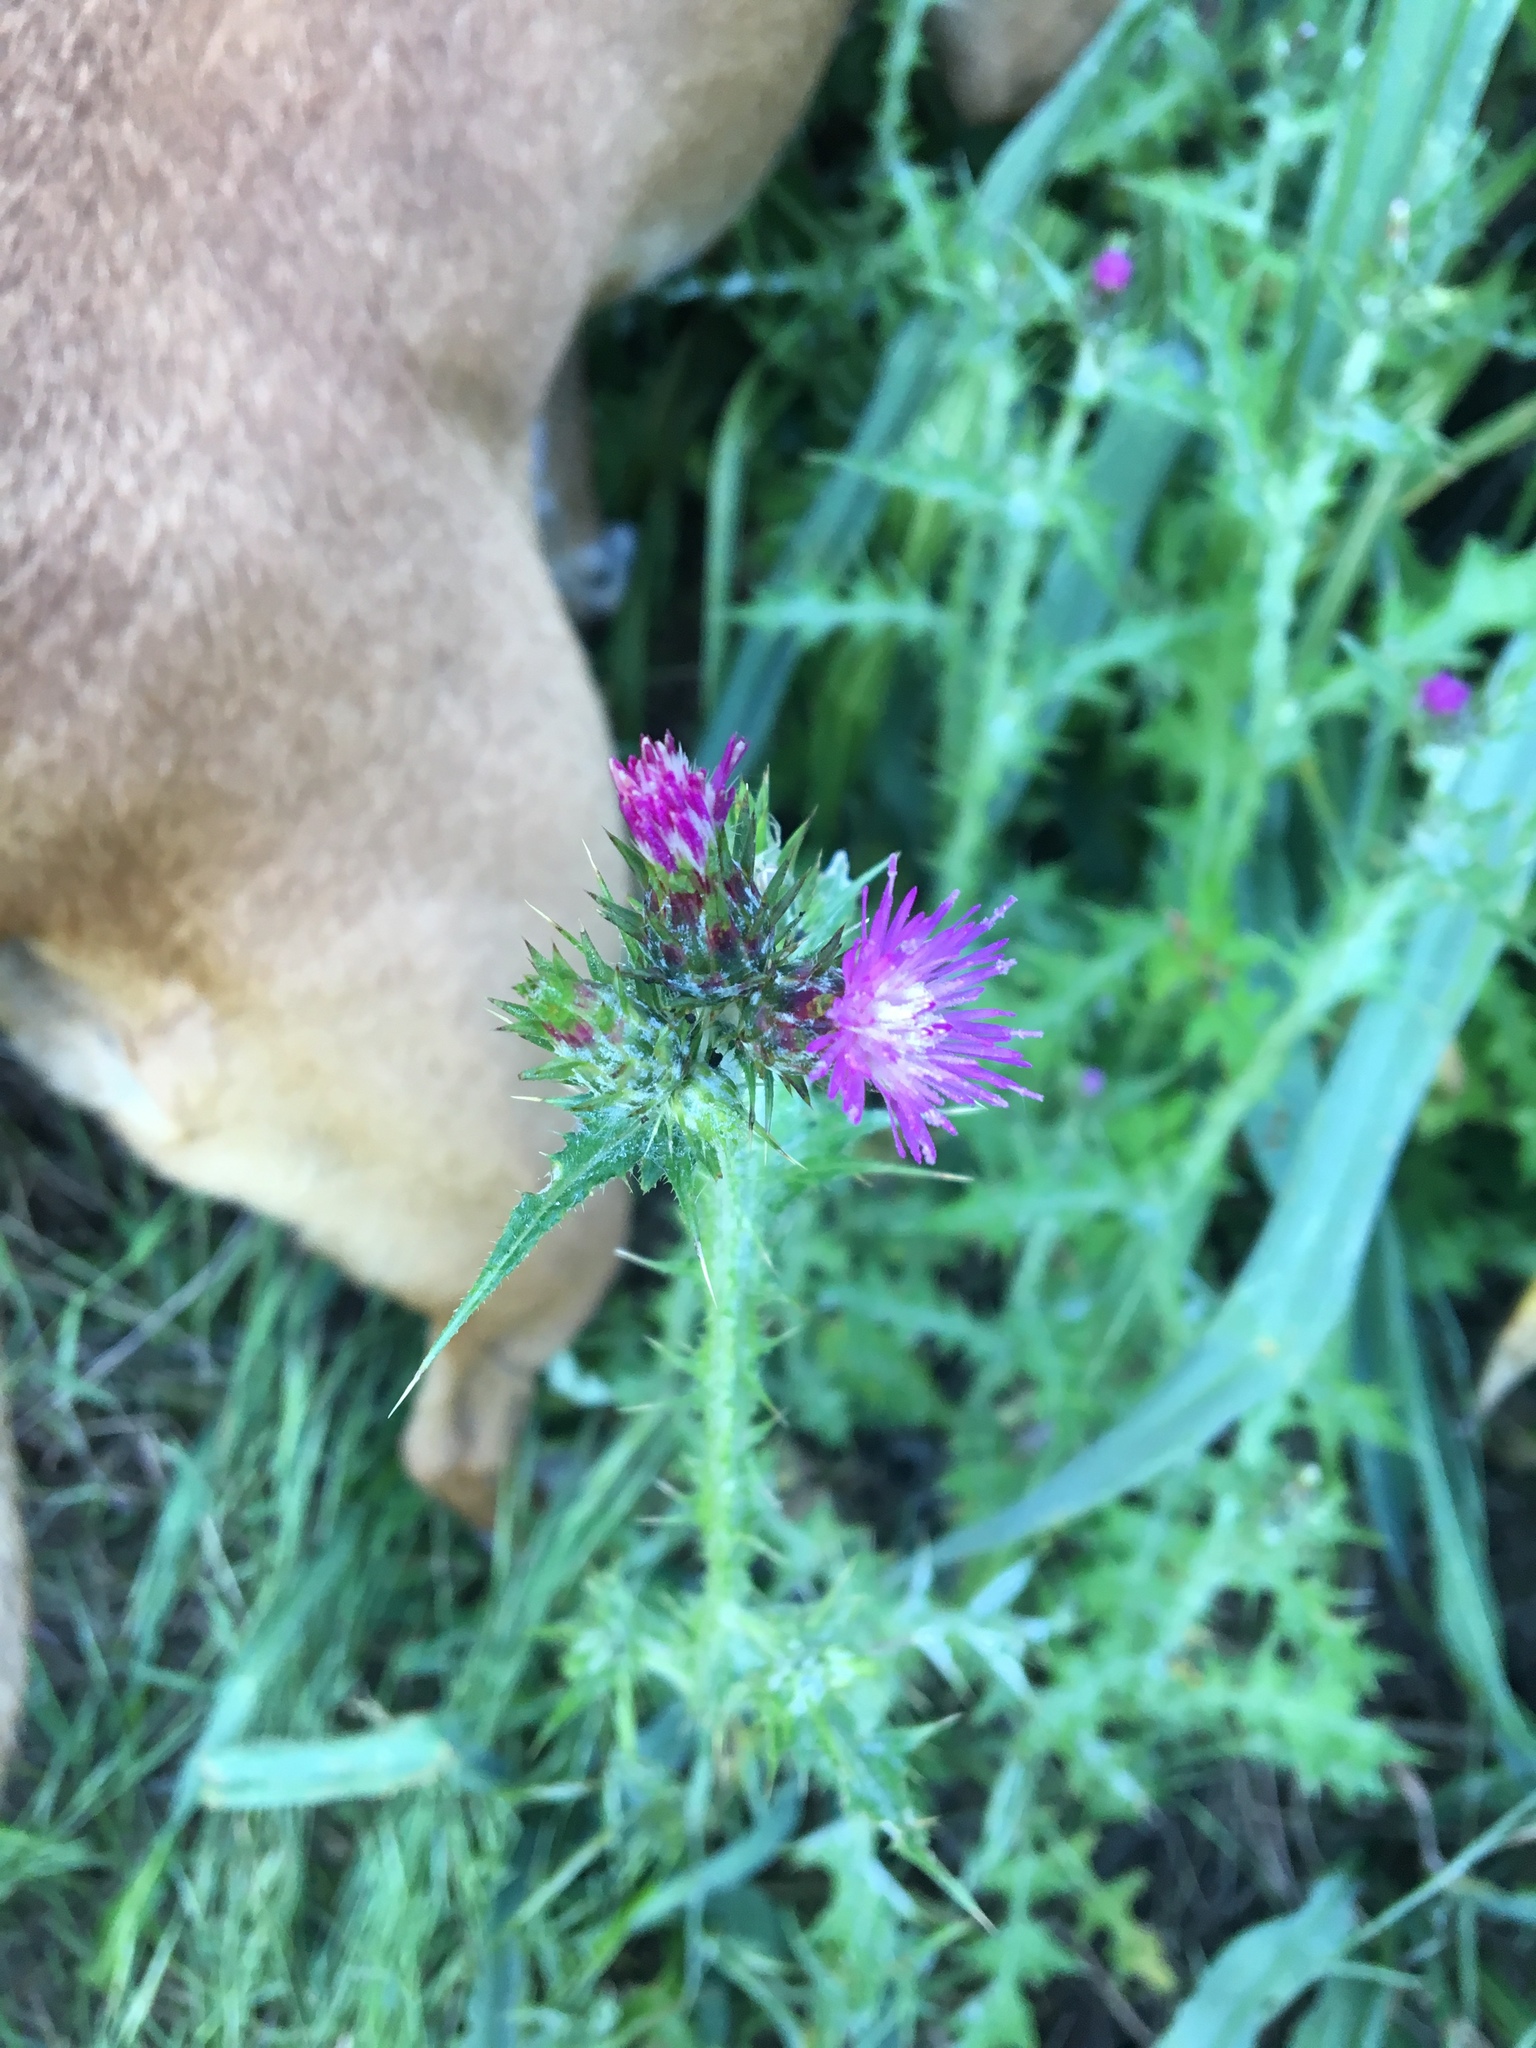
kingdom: Plantae
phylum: Tracheophyta
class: Magnoliopsida
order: Asterales
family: Asteraceae
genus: Carduus
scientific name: Carduus pycnocephalus
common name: Plymouth thistle
